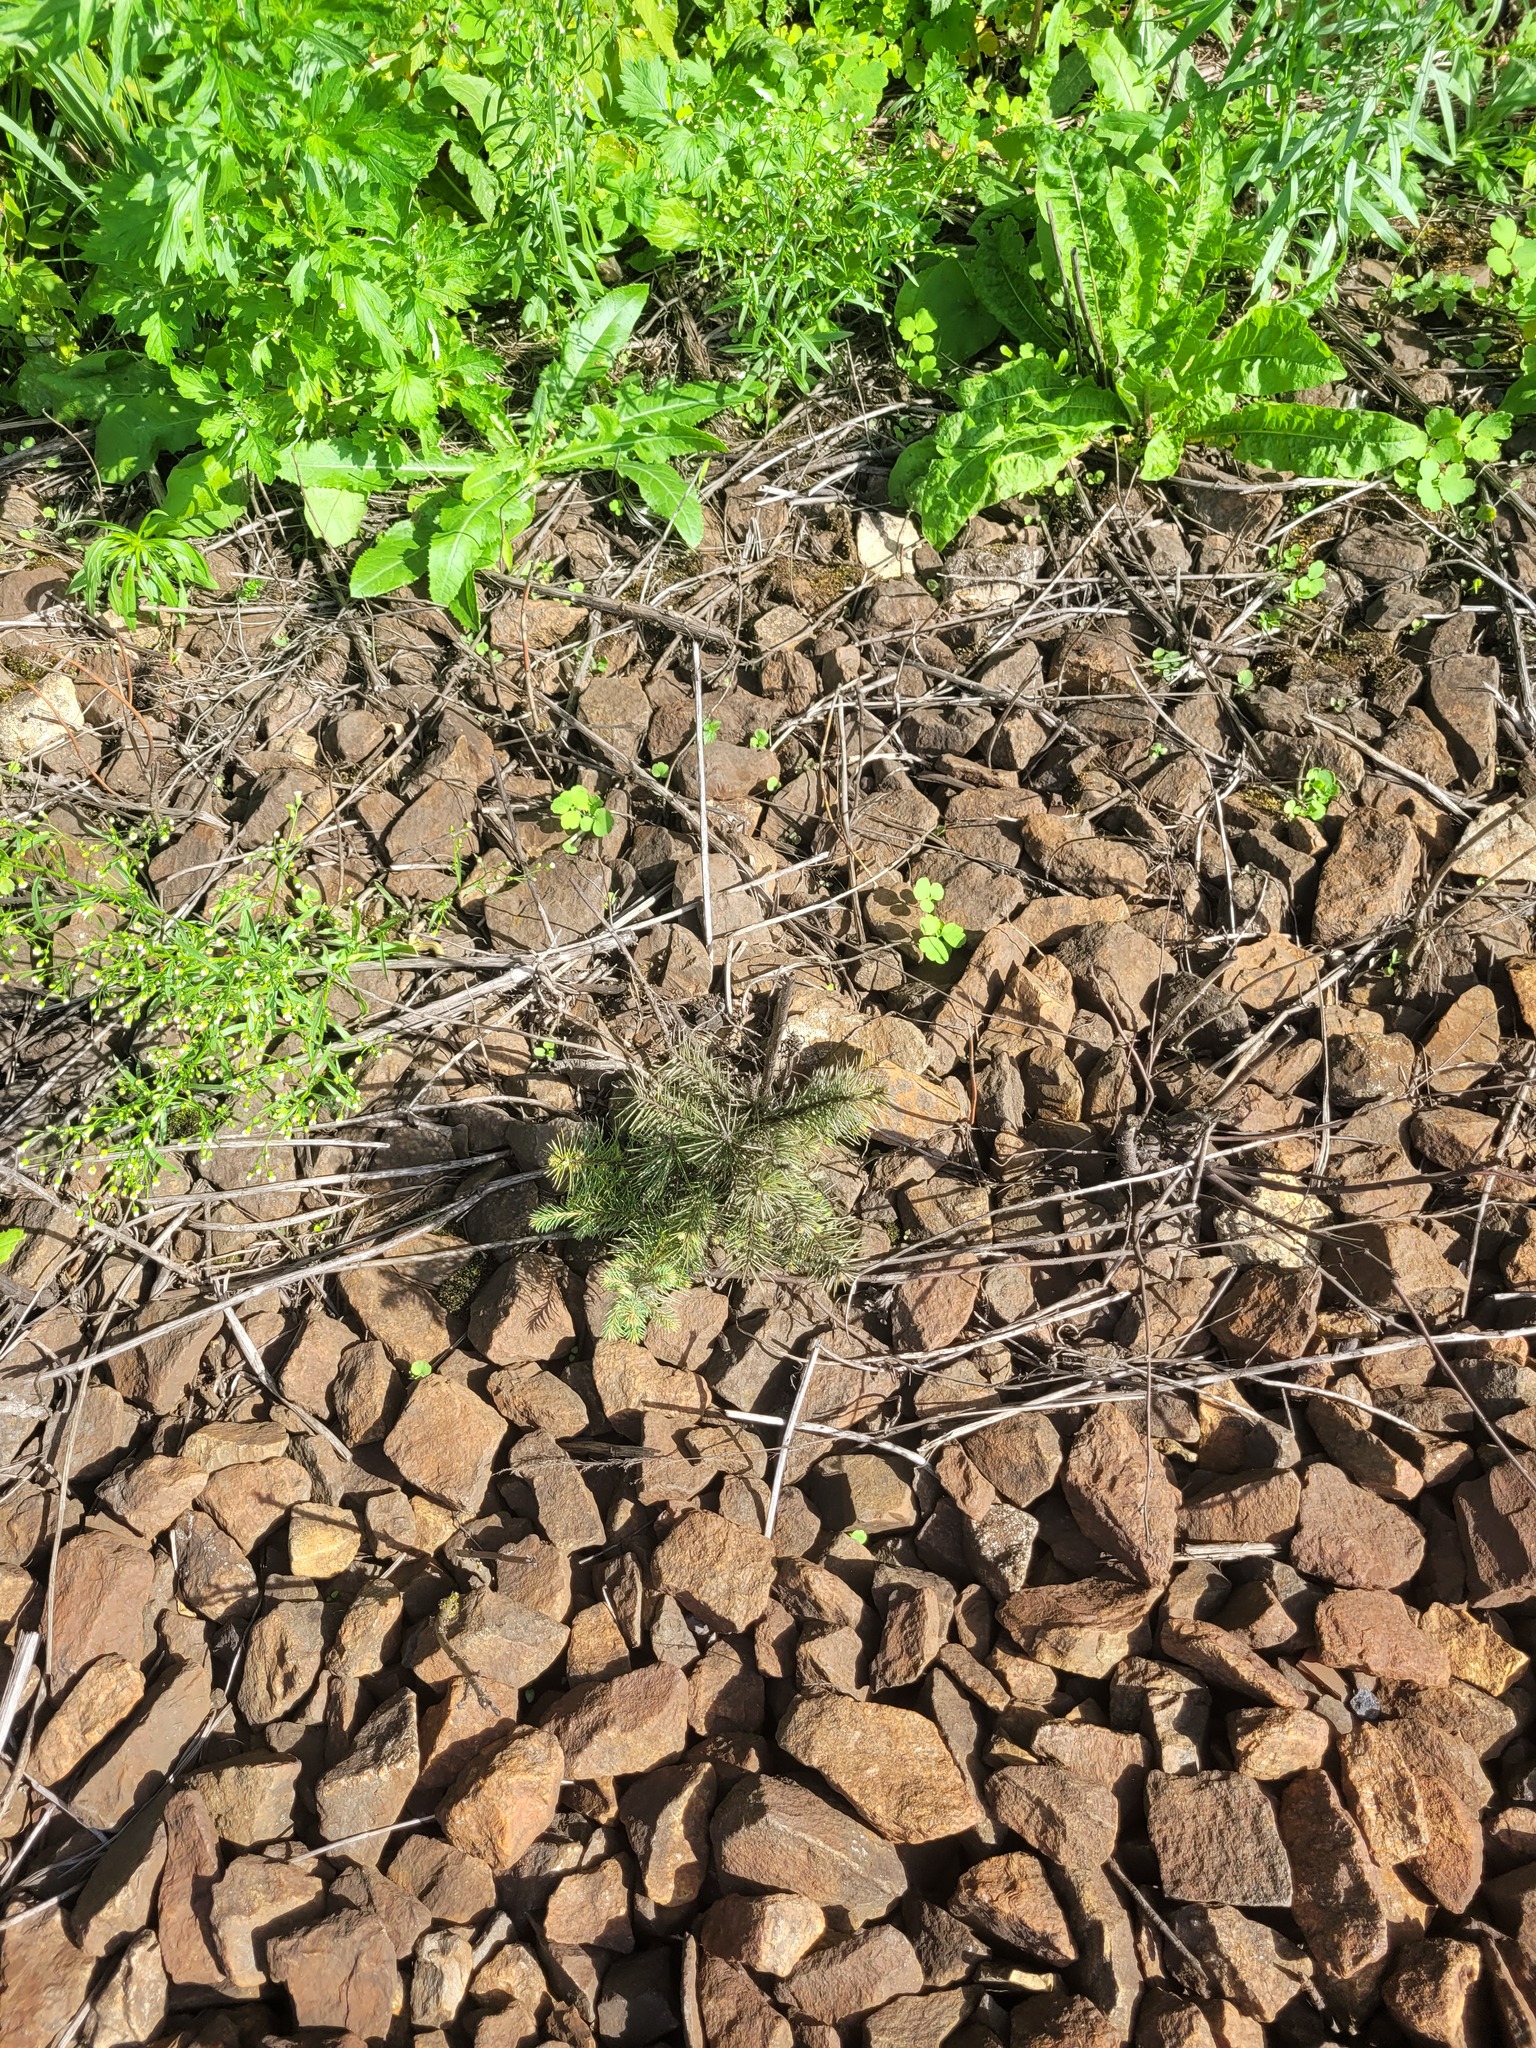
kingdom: Plantae
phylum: Tracheophyta
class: Pinopsida
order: Pinales
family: Pinaceae
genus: Picea
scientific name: Picea abies
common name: Norway spruce
